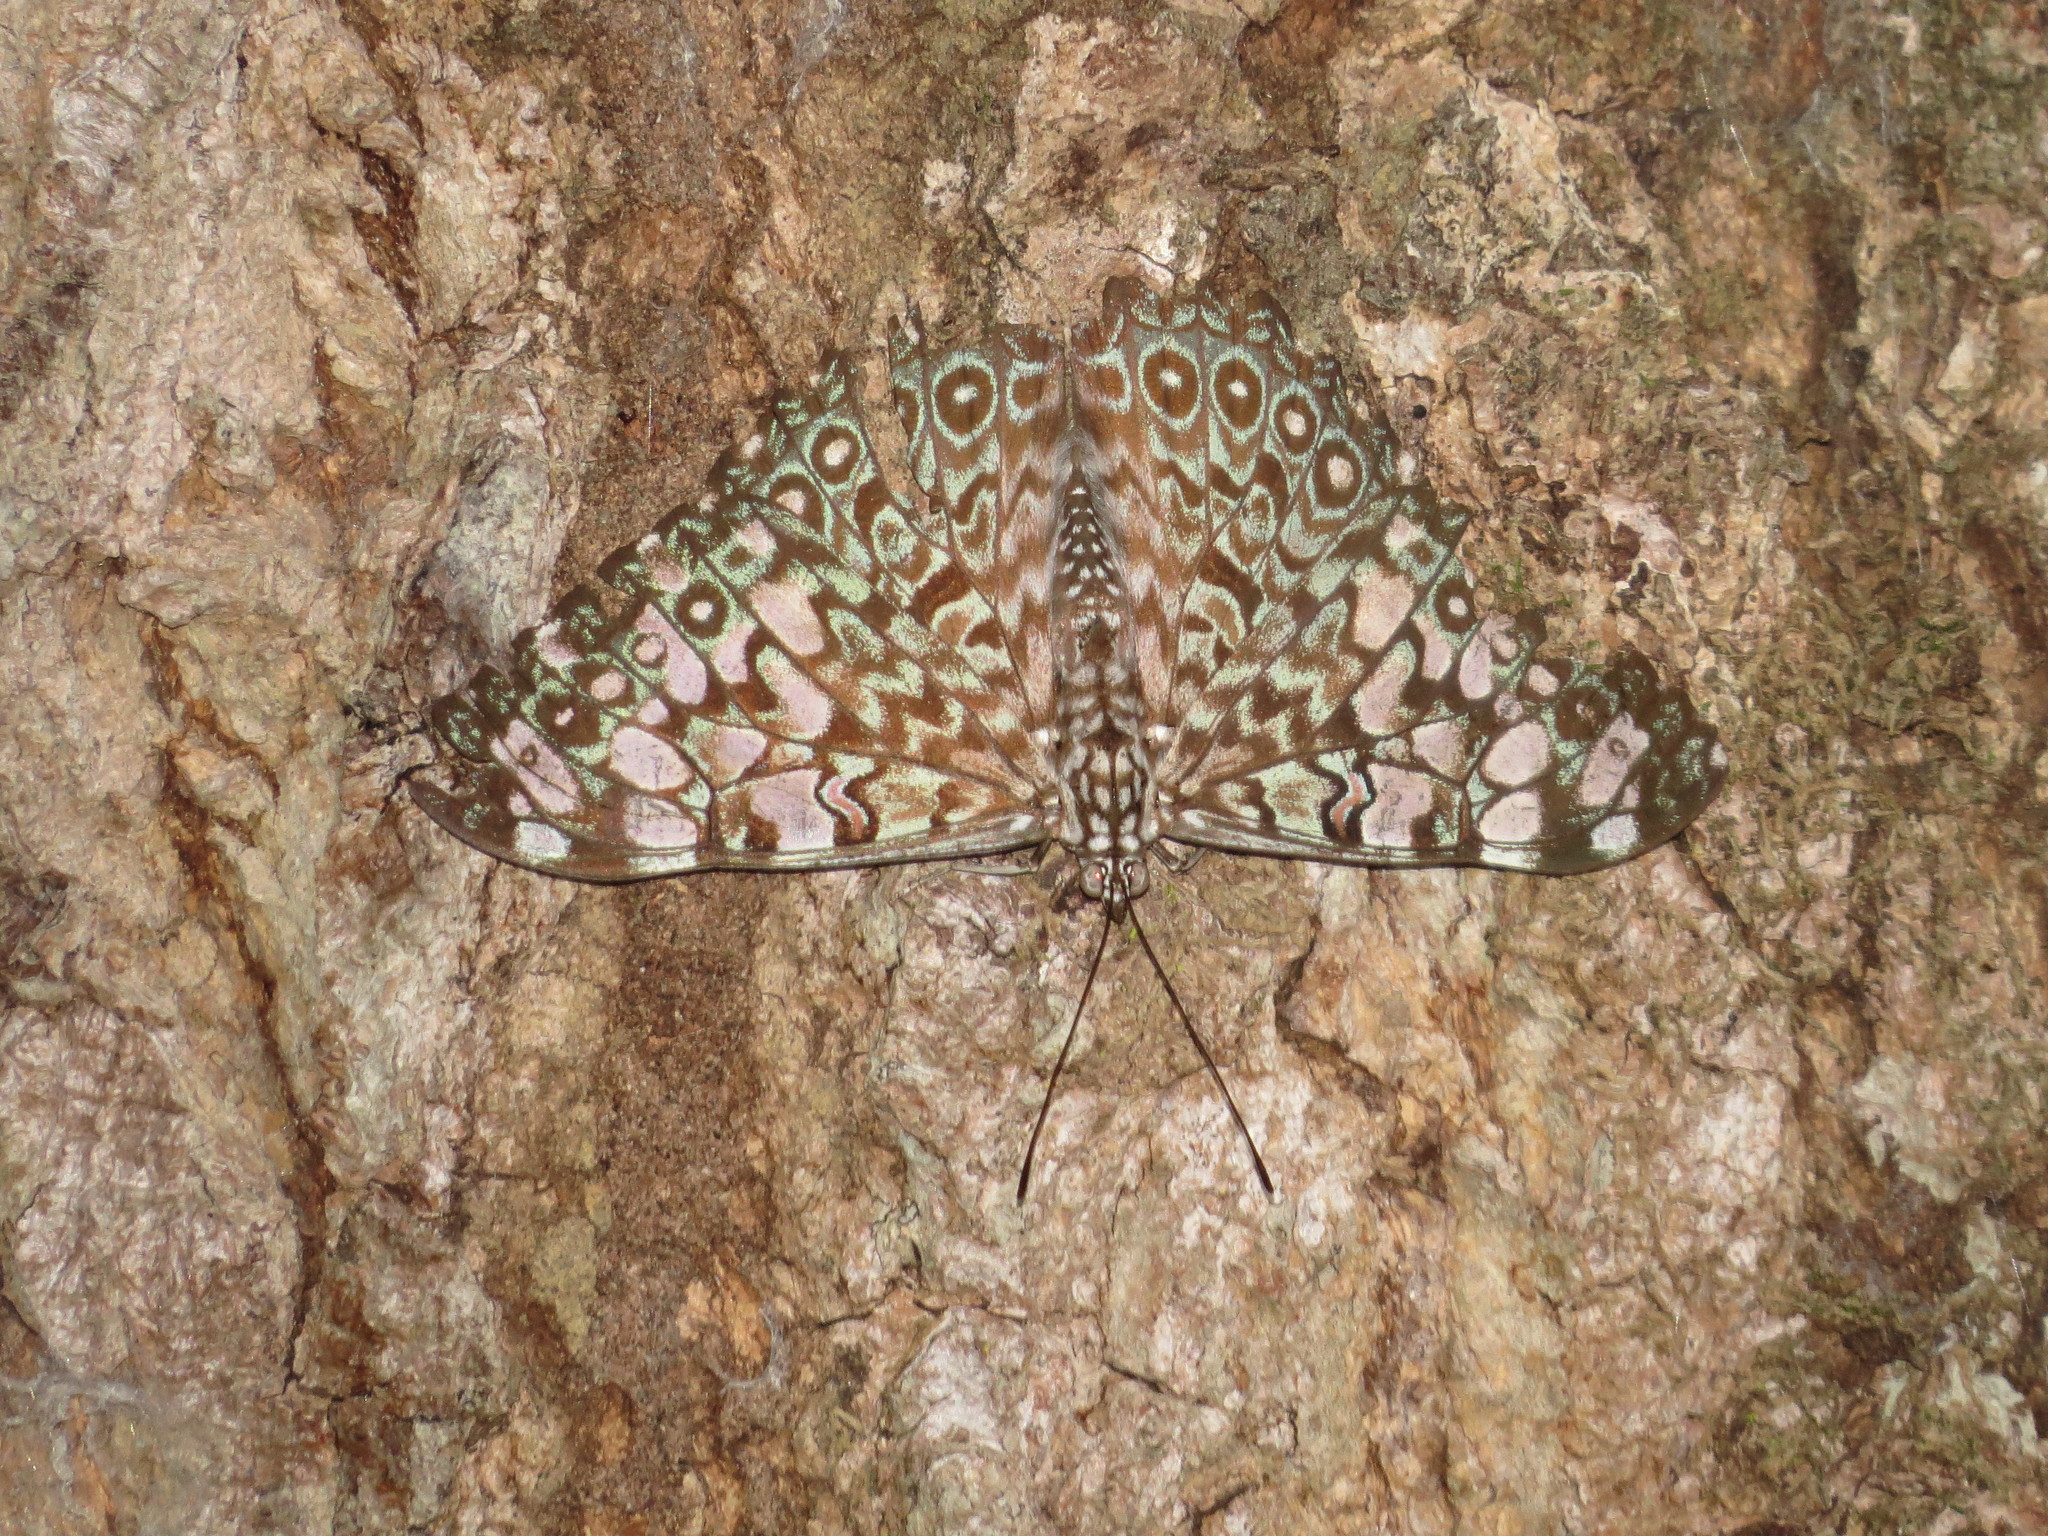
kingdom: Animalia
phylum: Arthropoda
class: Insecta
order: Lepidoptera
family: Nymphalidae
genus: Hamadryas
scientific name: Hamadryas feronia
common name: Variable cracker
